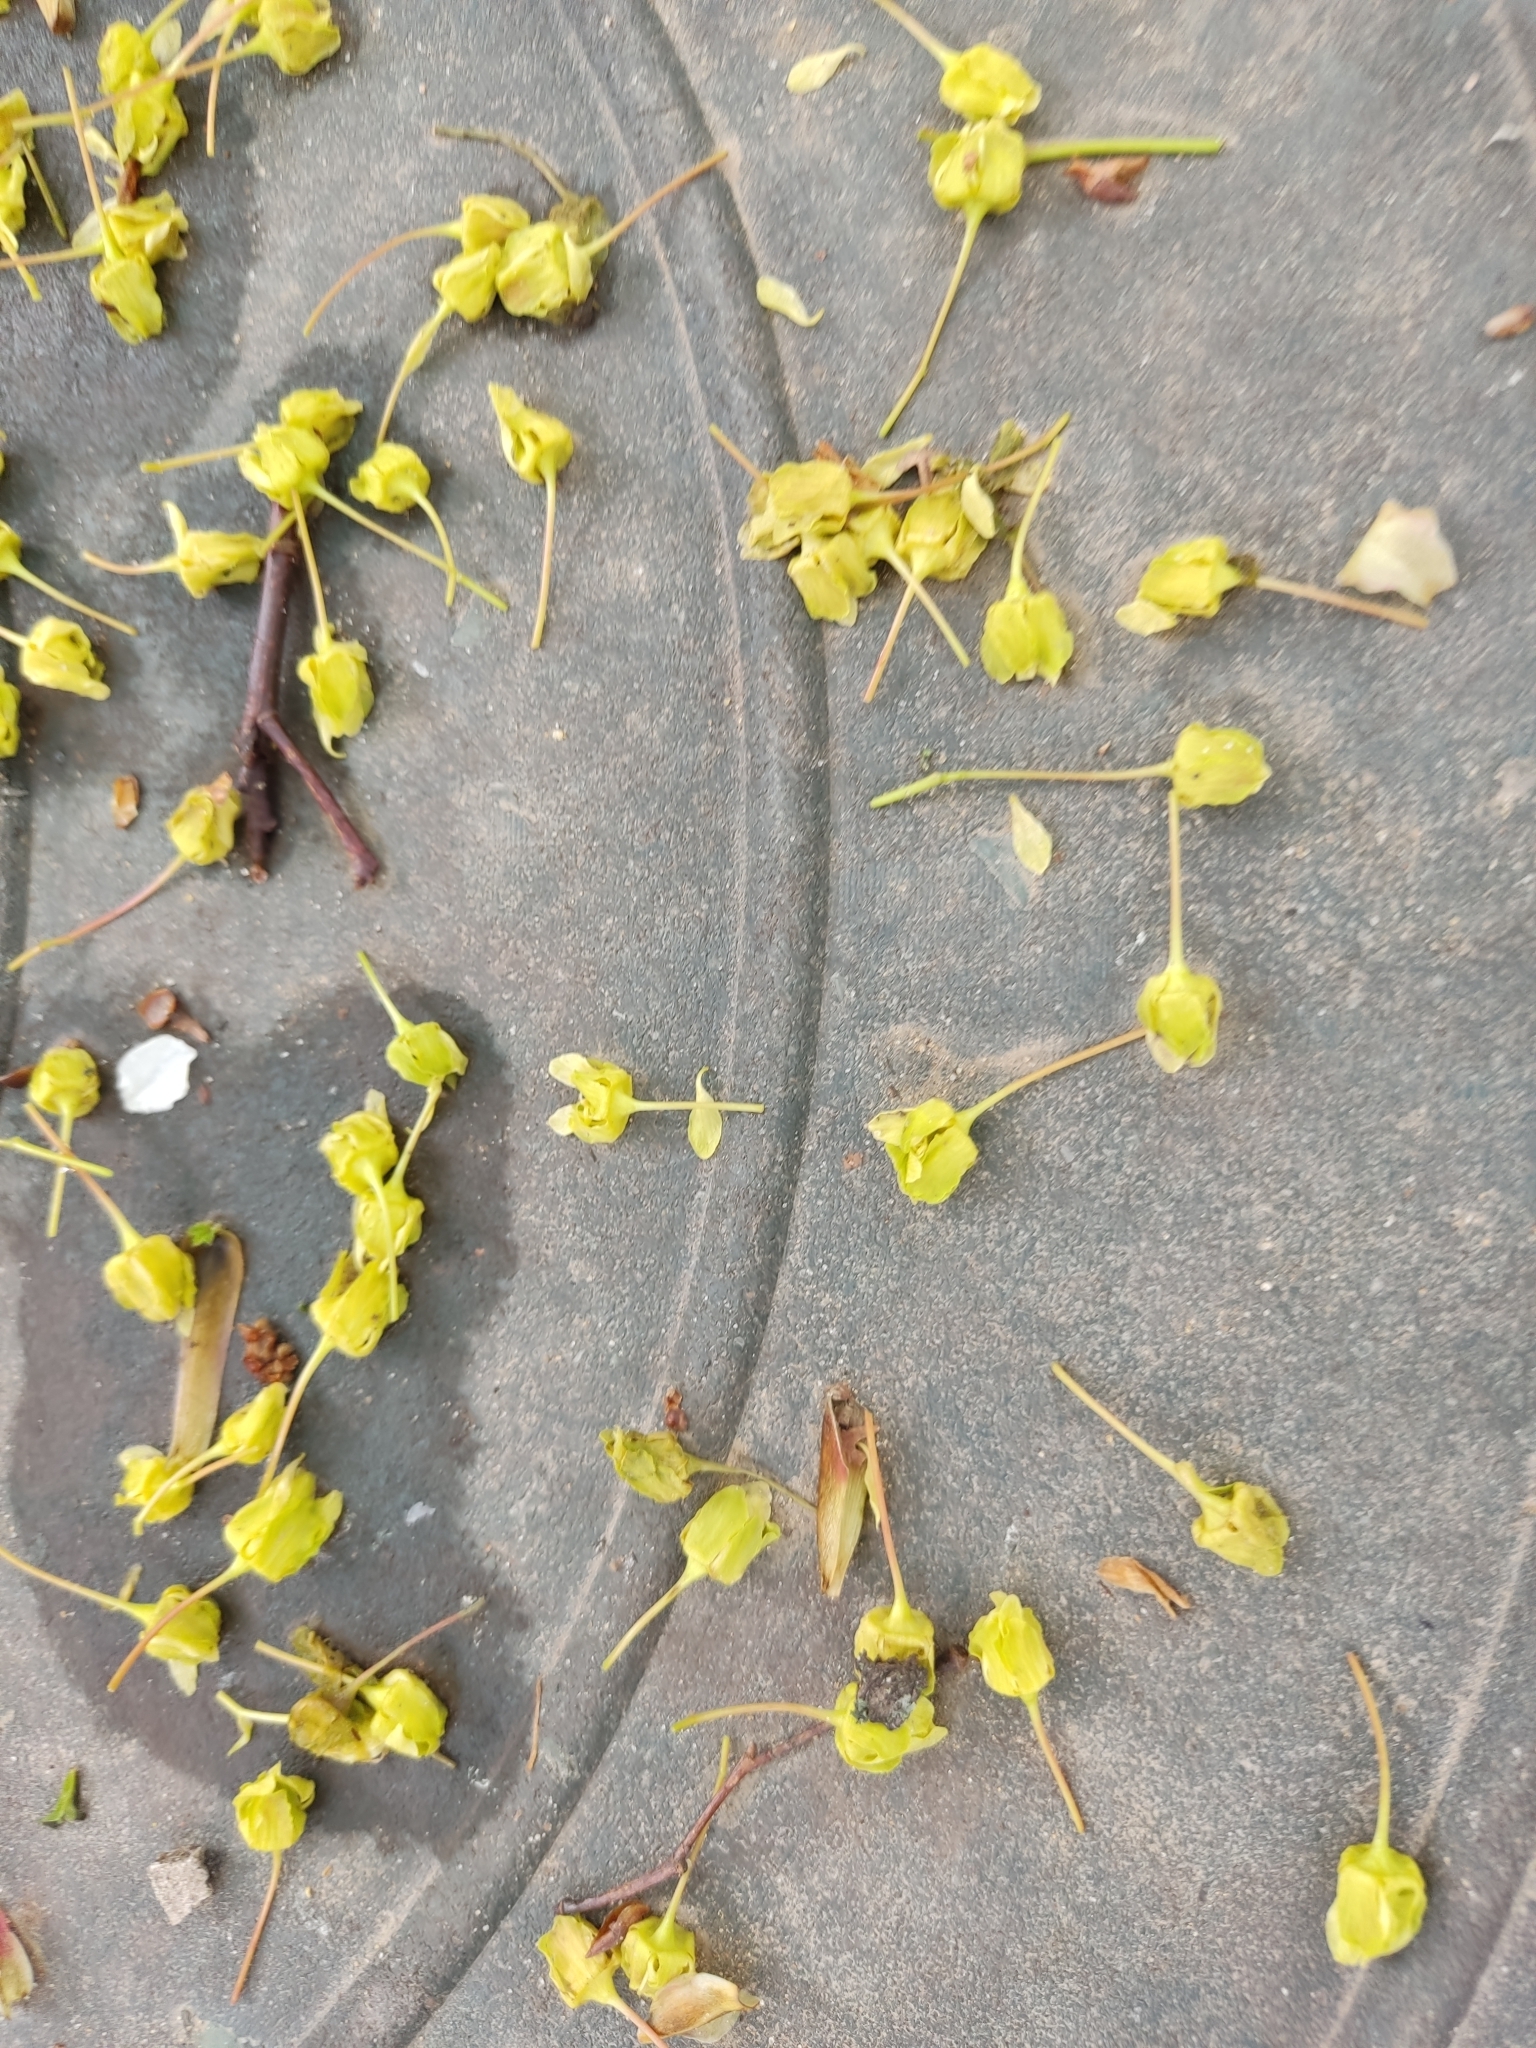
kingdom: Plantae
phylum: Tracheophyta
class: Magnoliopsida
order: Sapindales
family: Sapindaceae
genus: Acer
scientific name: Acer platanoides
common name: Norway maple
